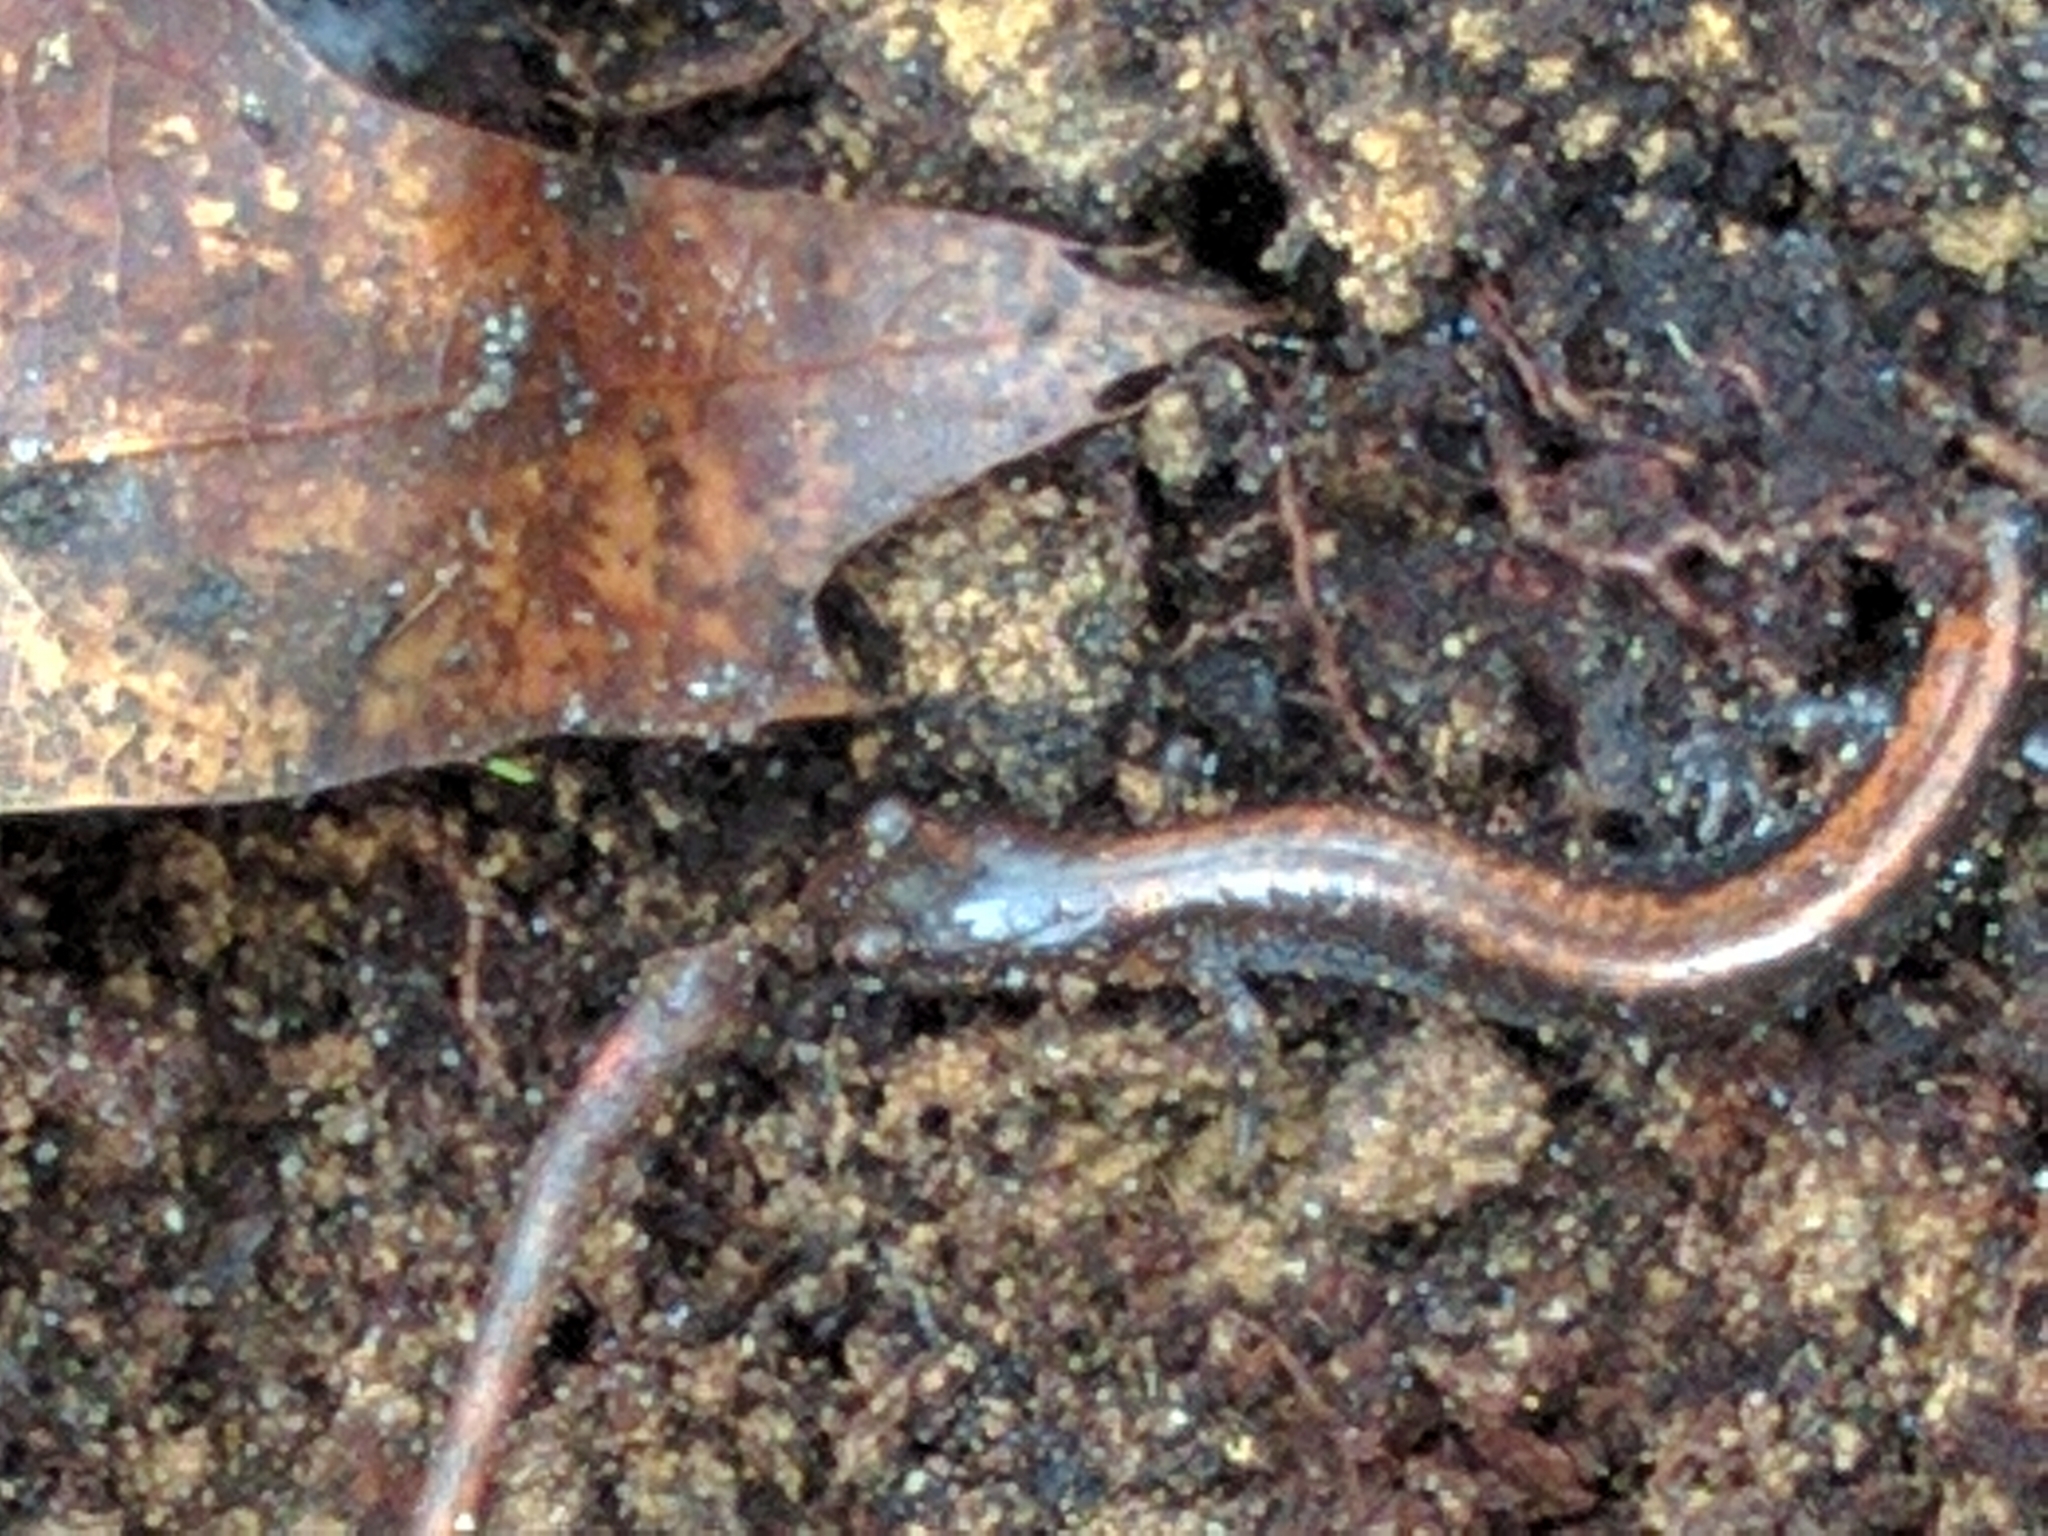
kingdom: Animalia
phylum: Chordata
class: Amphibia
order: Caudata
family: Plethodontidae
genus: Plethodon
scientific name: Plethodon cinereus
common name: Redback salamander
